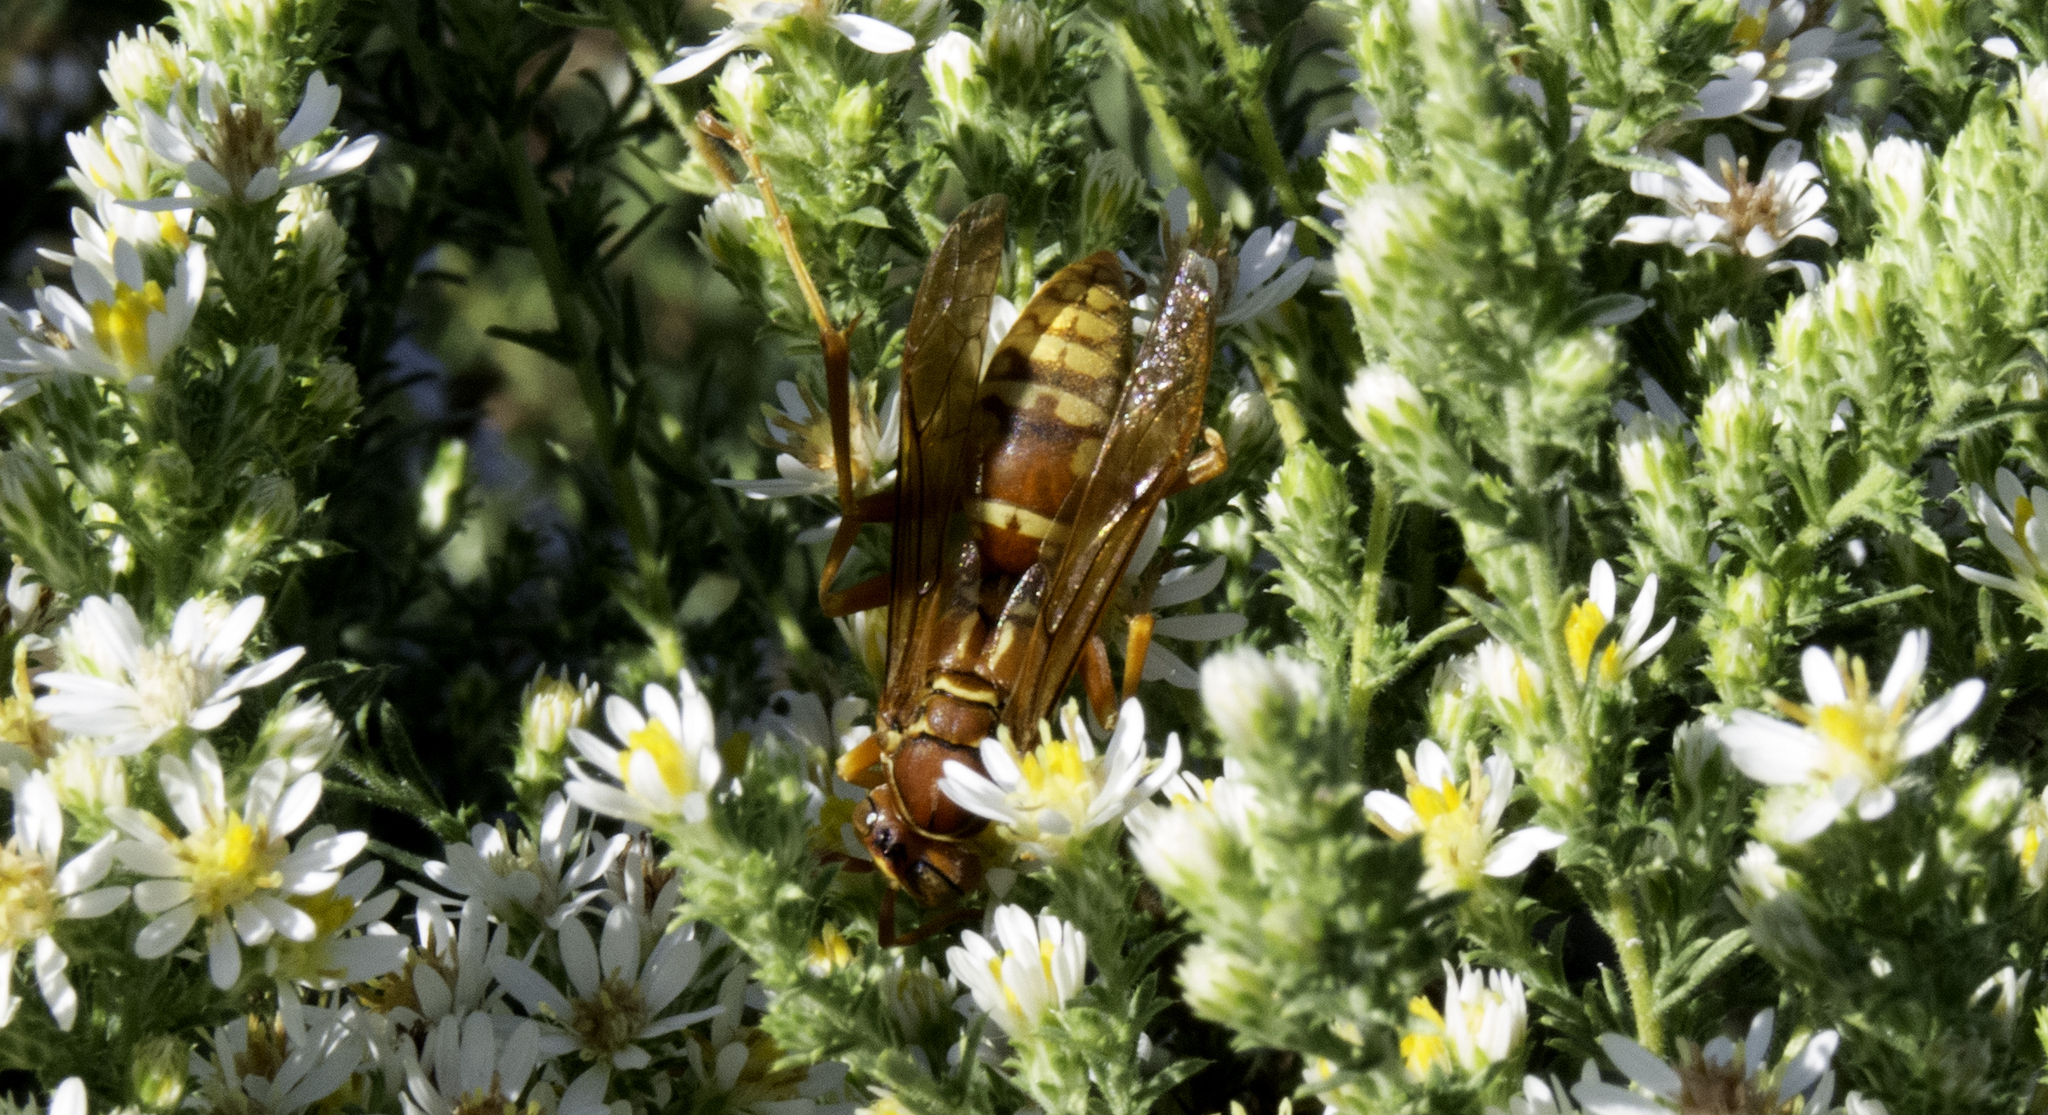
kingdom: Animalia
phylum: Arthropoda
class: Insecta
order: Hymenoptera
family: Eumenidae
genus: Polistes
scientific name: Polistes apachus
